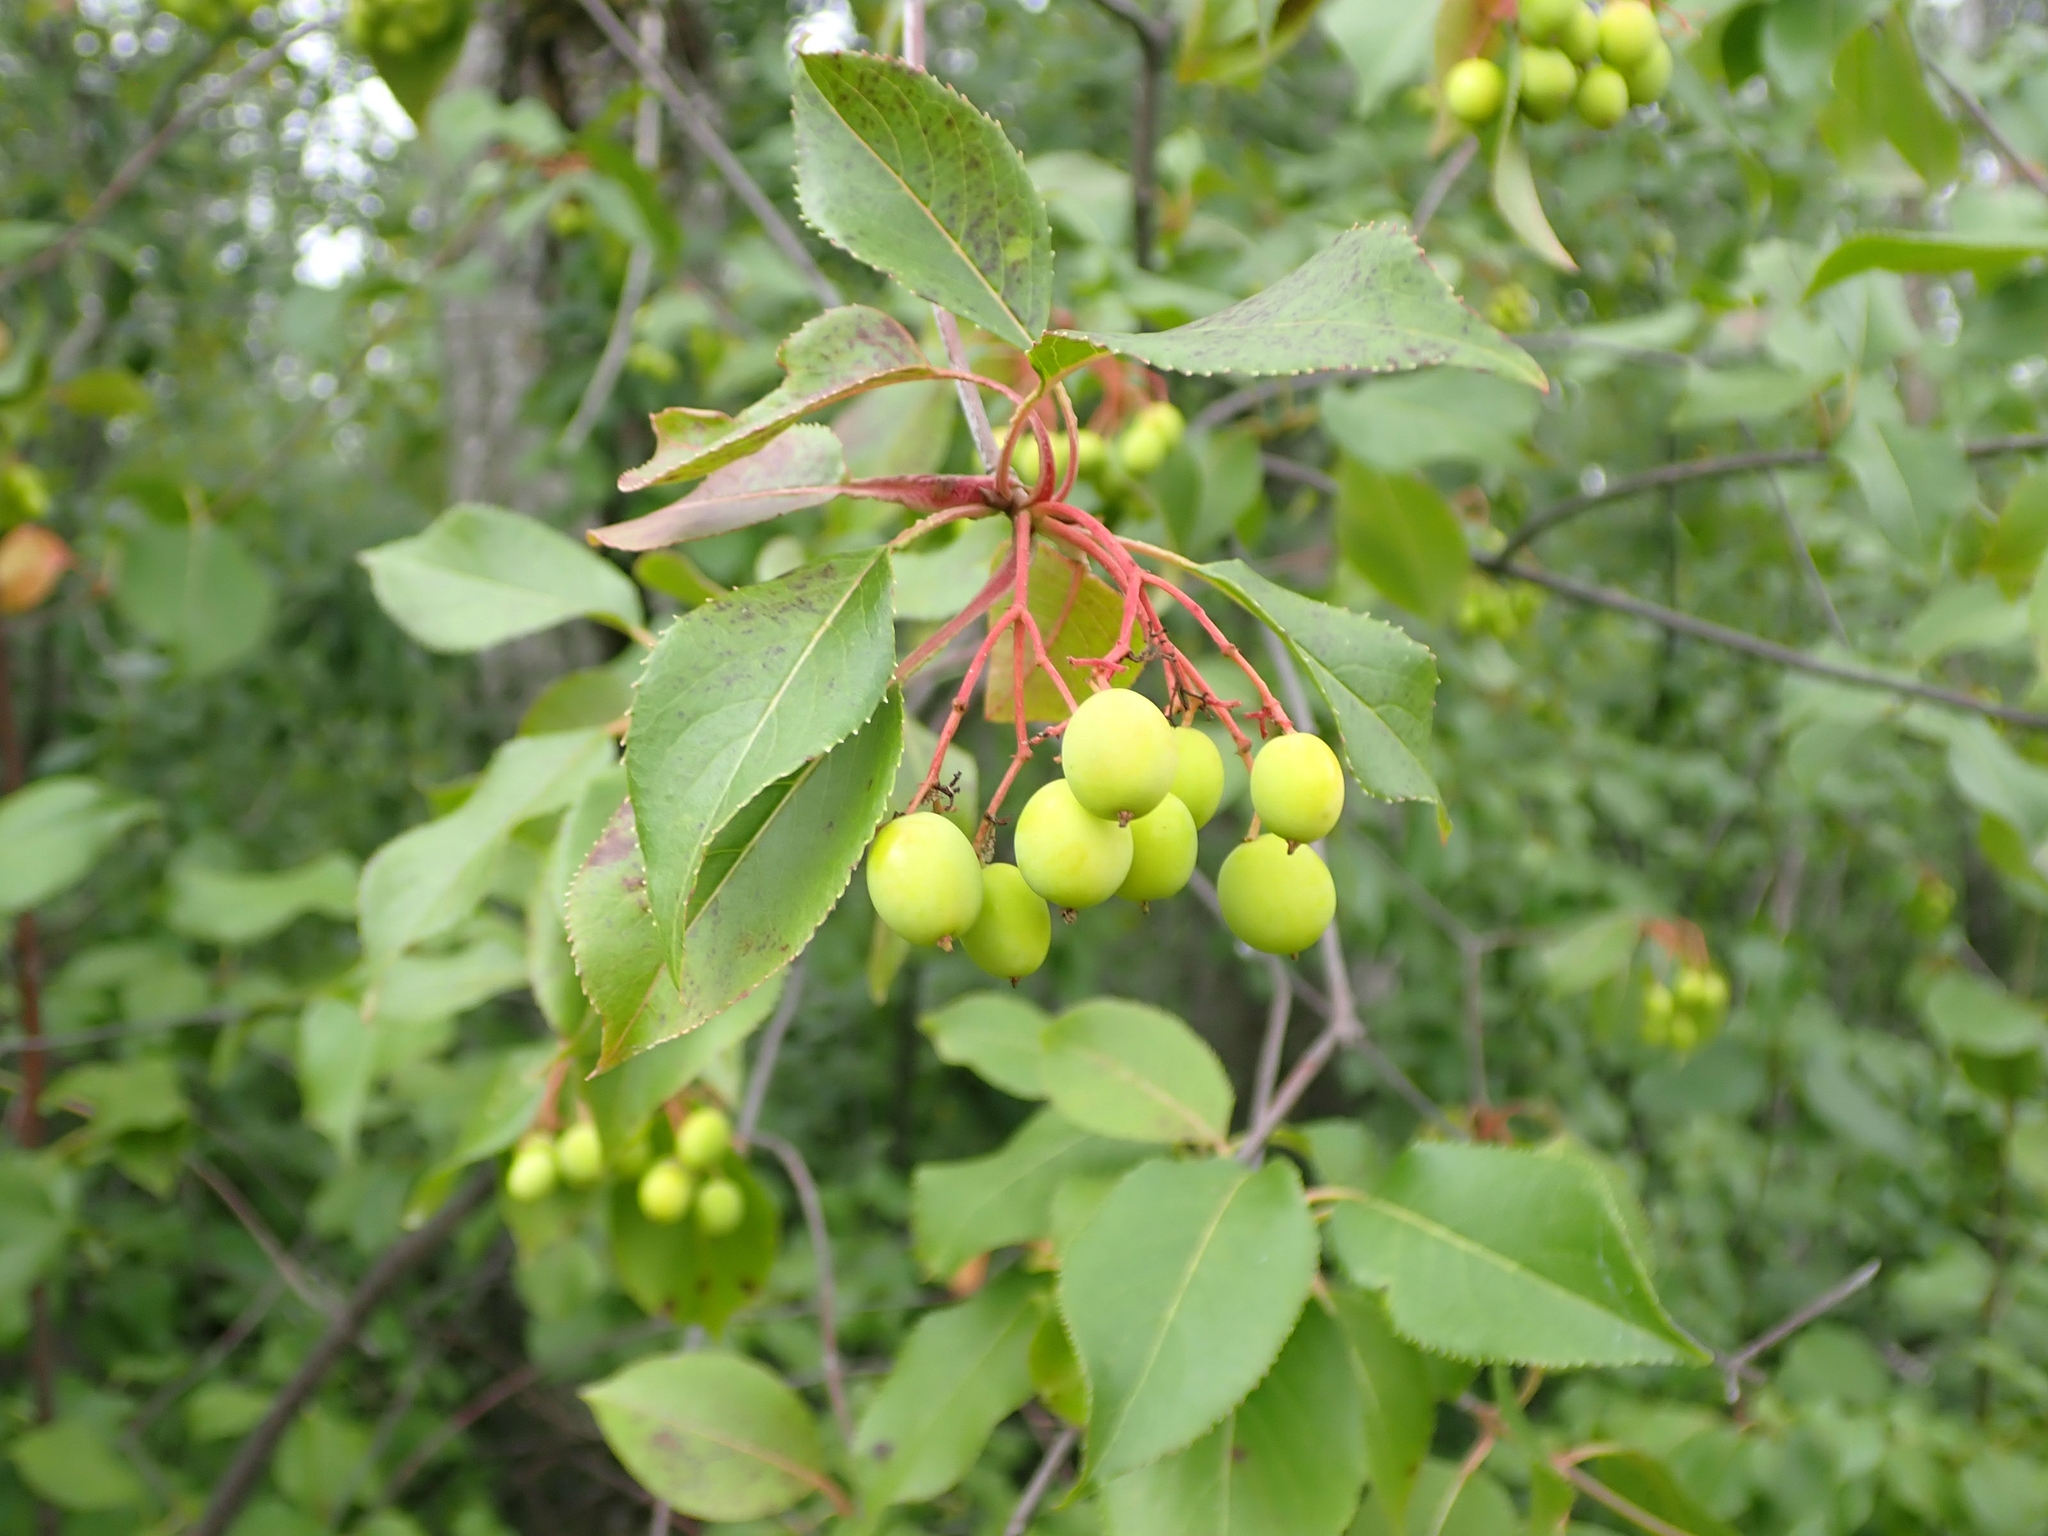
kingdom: Plantae
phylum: Tracheophyta
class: Magnoliopsida
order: Dipsacales
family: Viburnaceae
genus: Viburnum
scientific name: Viburnum lentago
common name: Black haw
